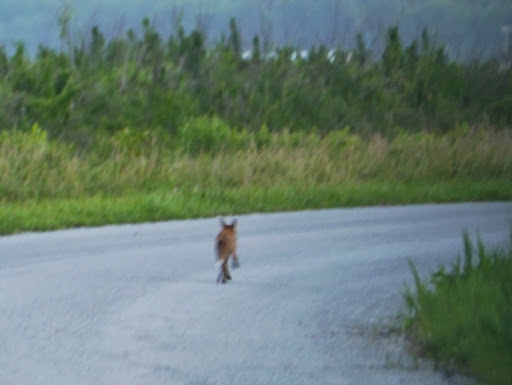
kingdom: Animalia
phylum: Chordata
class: Mammalia
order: Carnivora
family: Canidae
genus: Vulpes
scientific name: Vulpes vulpes
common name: Red fox
